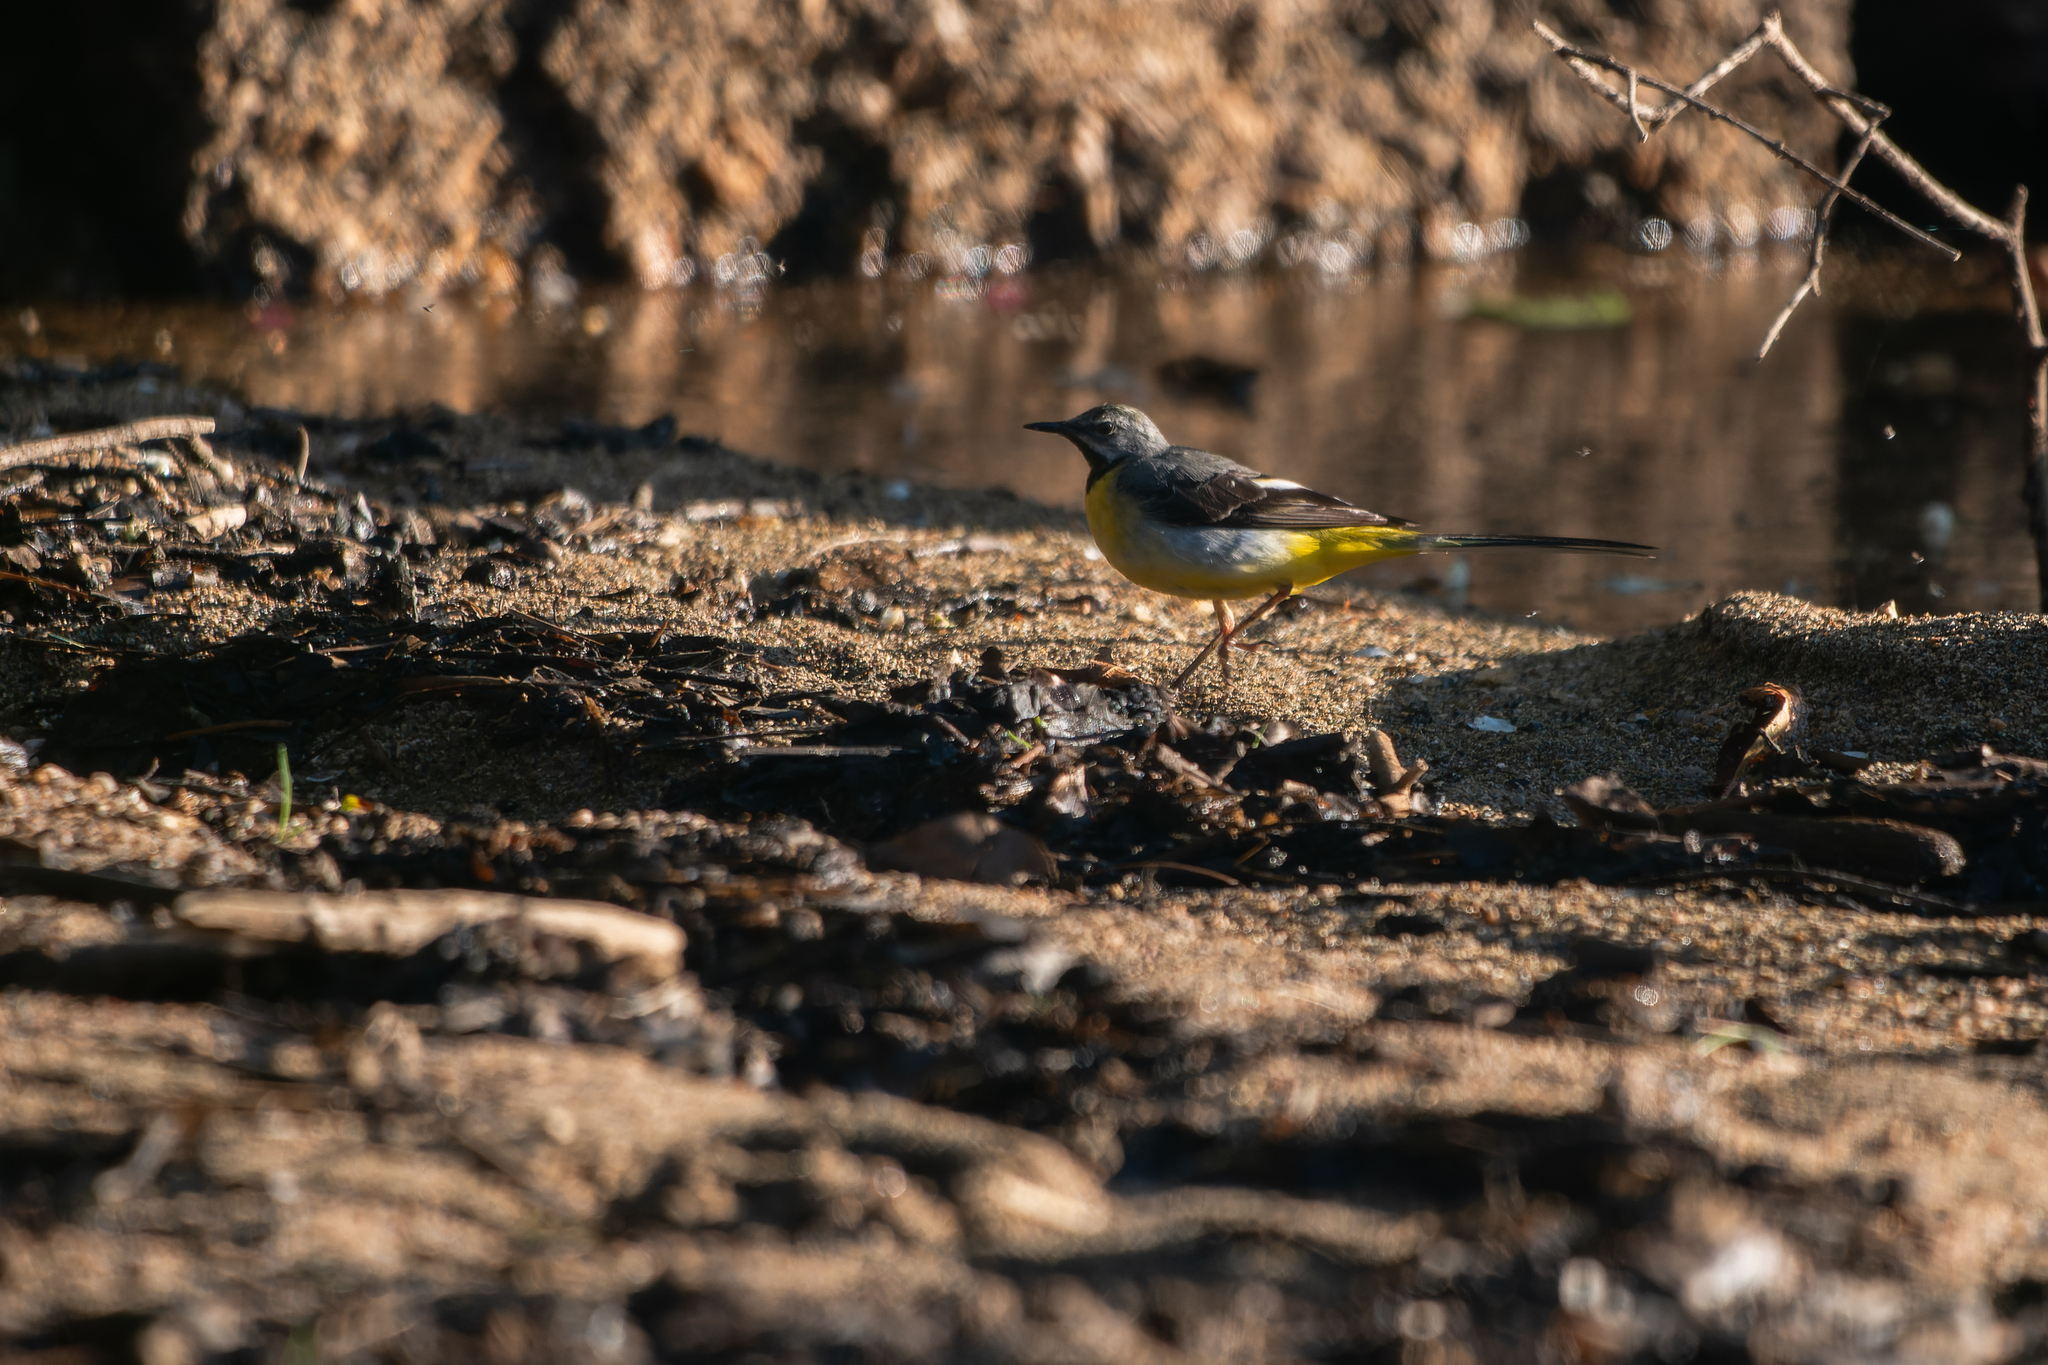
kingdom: Animalia
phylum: Chordata
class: Aves
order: Passeriformes
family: Motacillidae
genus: Motacilla
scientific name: Motacilla cinerea
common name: Grey wagtail
